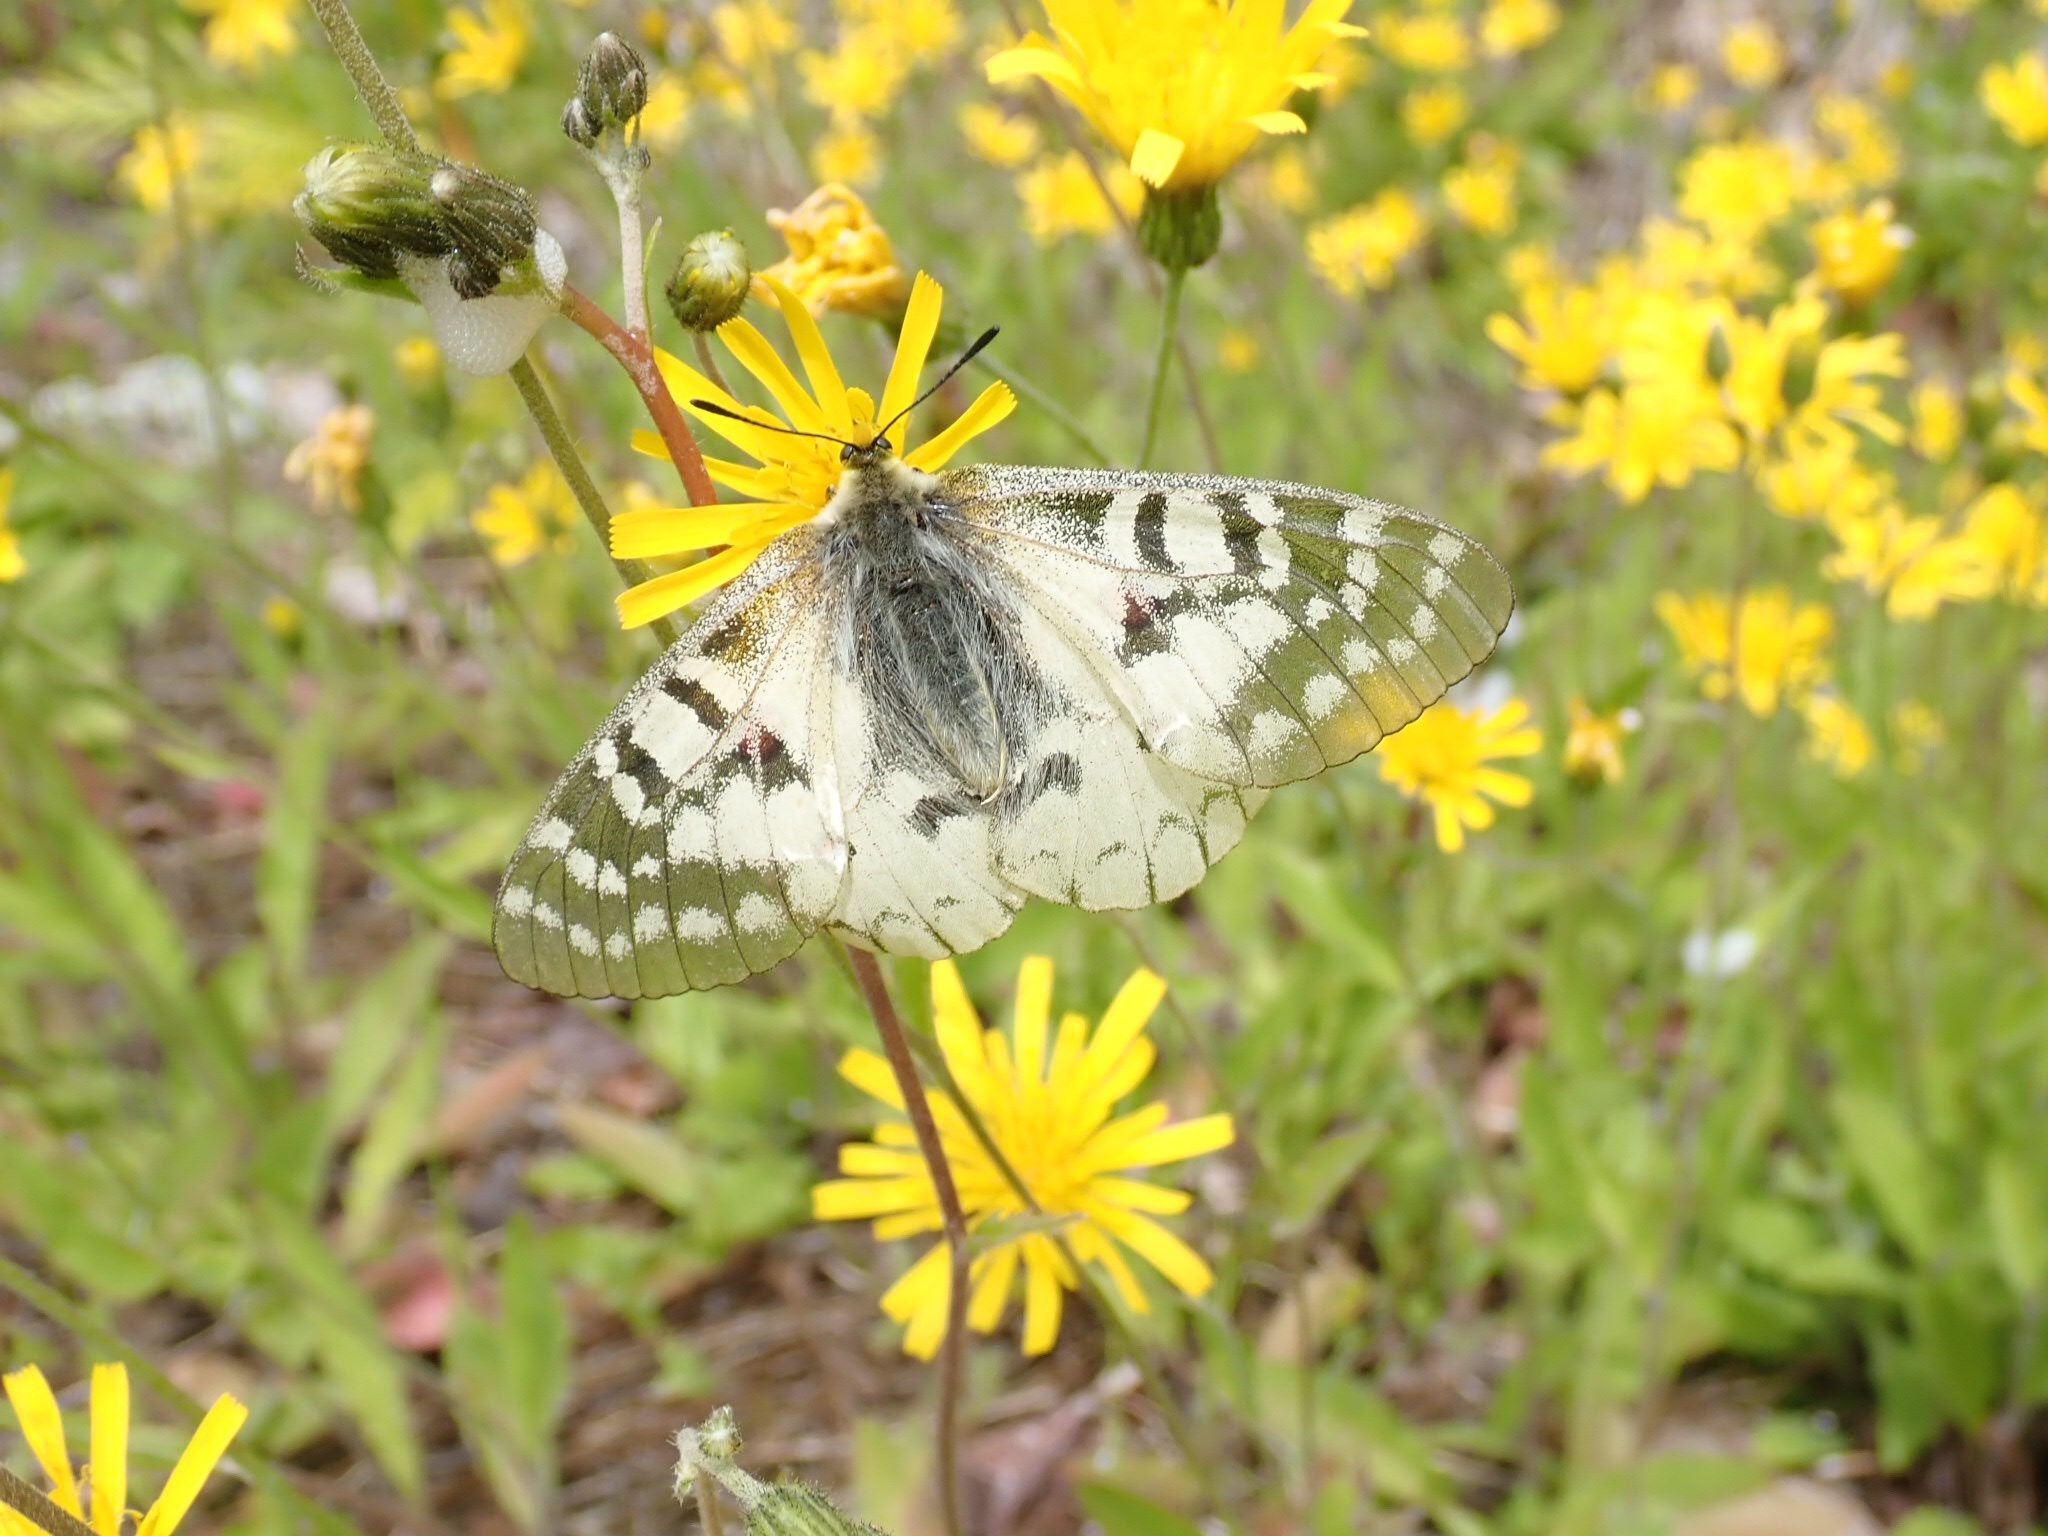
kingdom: Animalia
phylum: Arthropoda
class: Insecta
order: Lepidoptera
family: Papilionidae
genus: Parnassius
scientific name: Parnassius clodius
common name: American apollo
